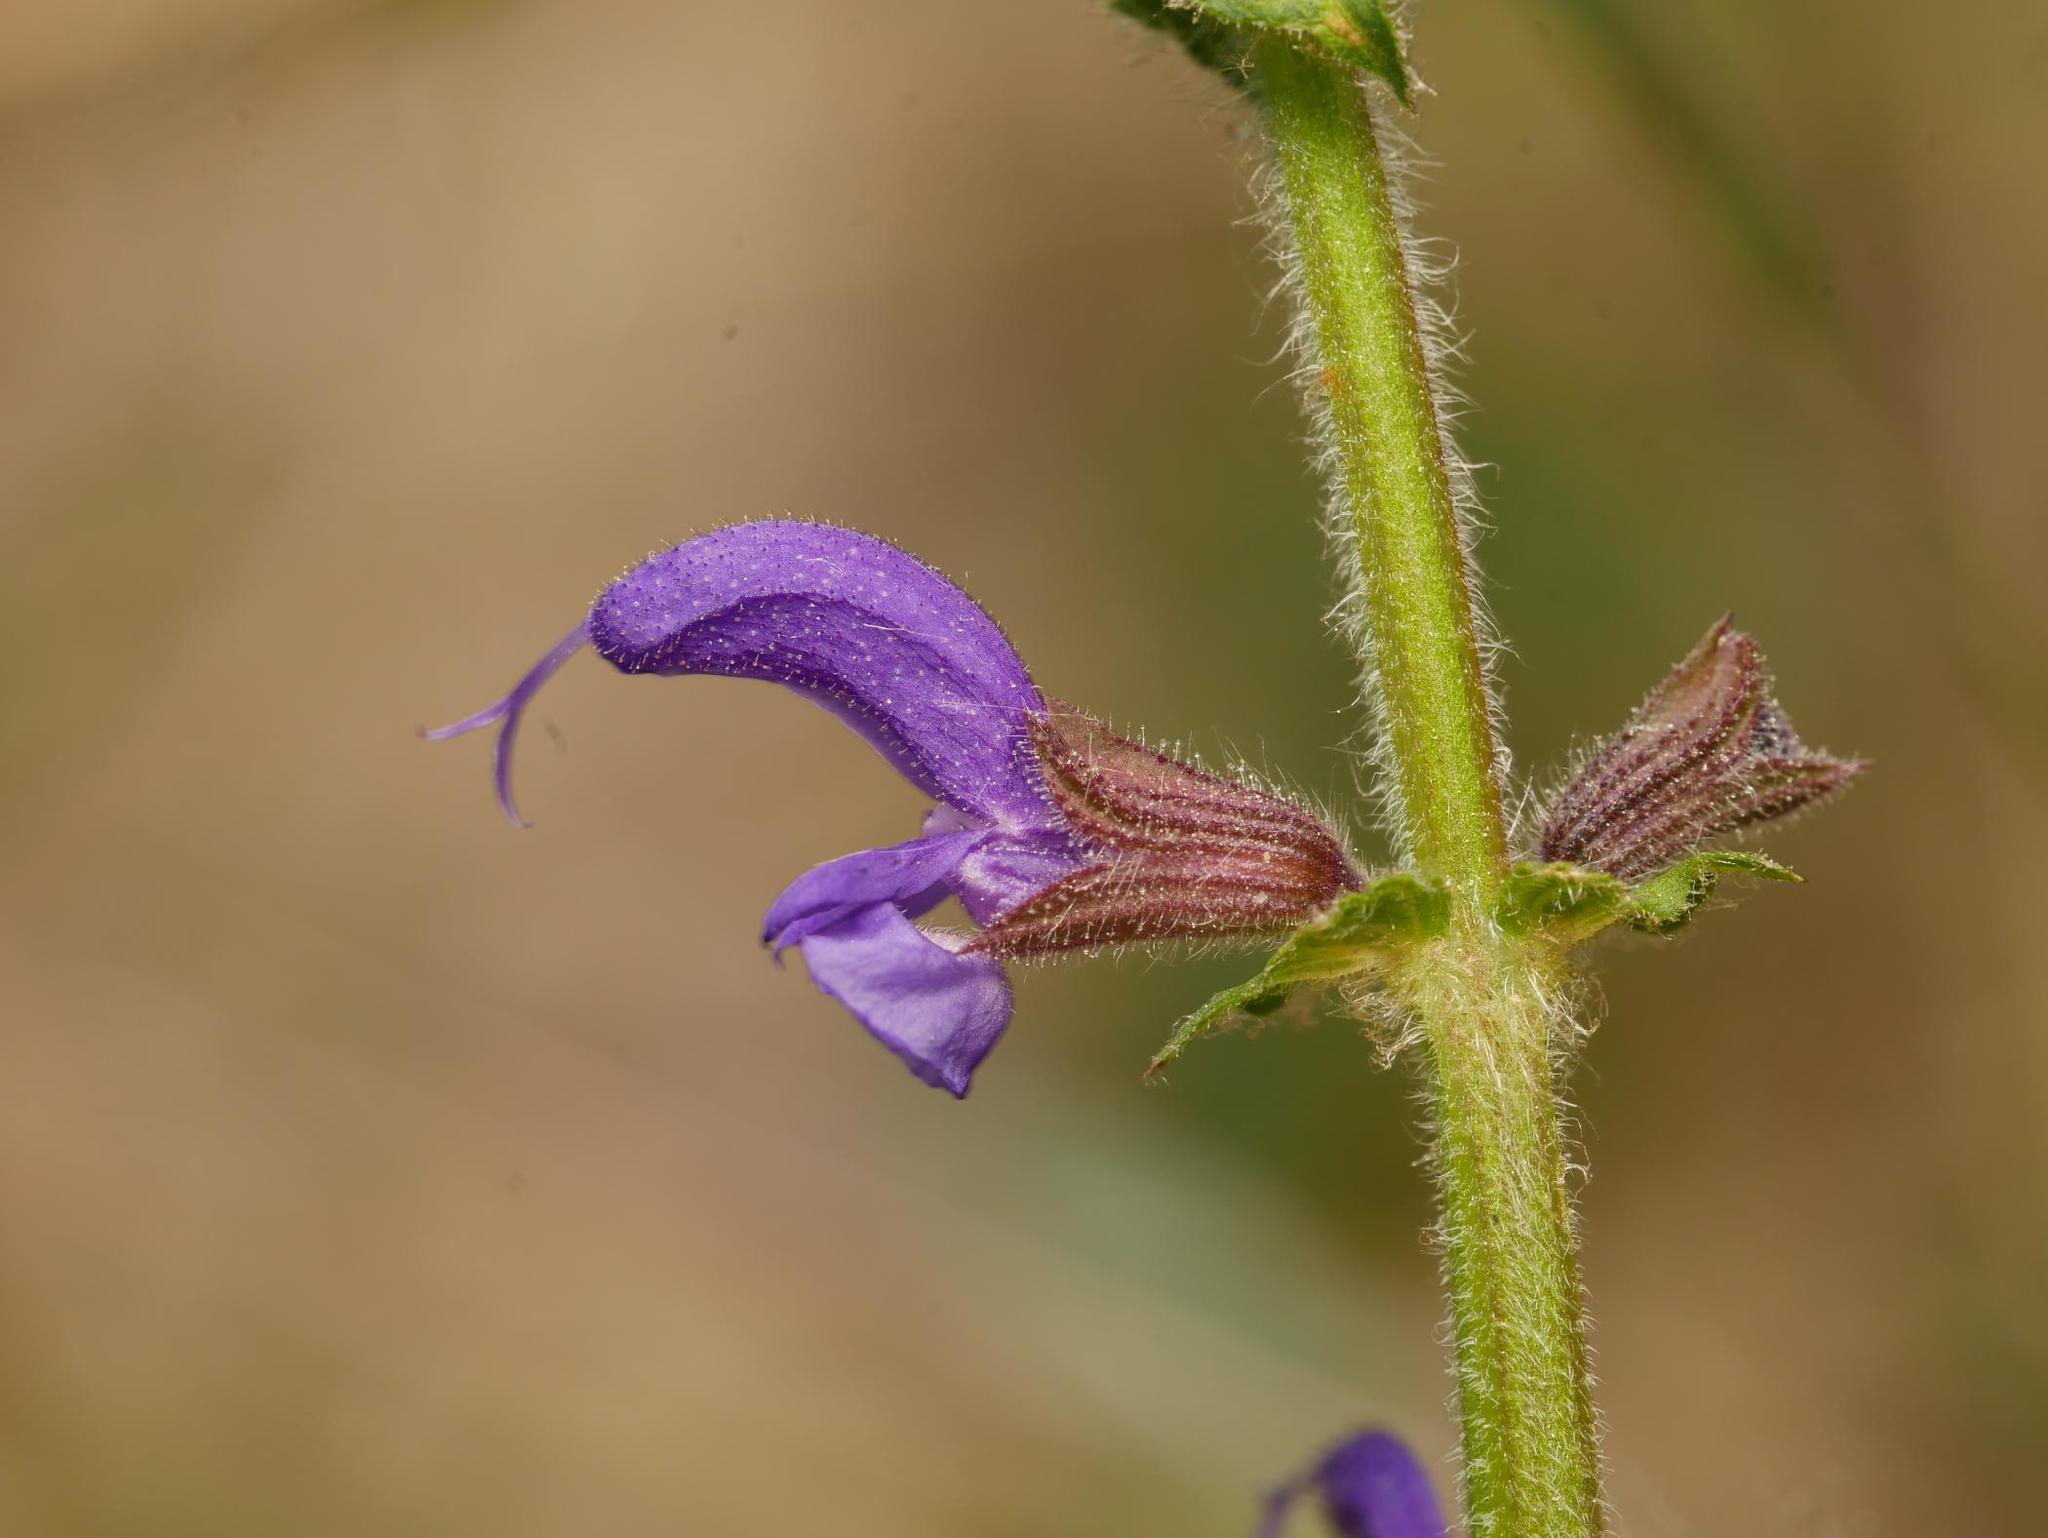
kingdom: Plantae
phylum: Tracheophyta
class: Magnoliopsida
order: Lamiales
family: Lamiaceae
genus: Salvia
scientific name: Salvia pratensis
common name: Meadow sage
